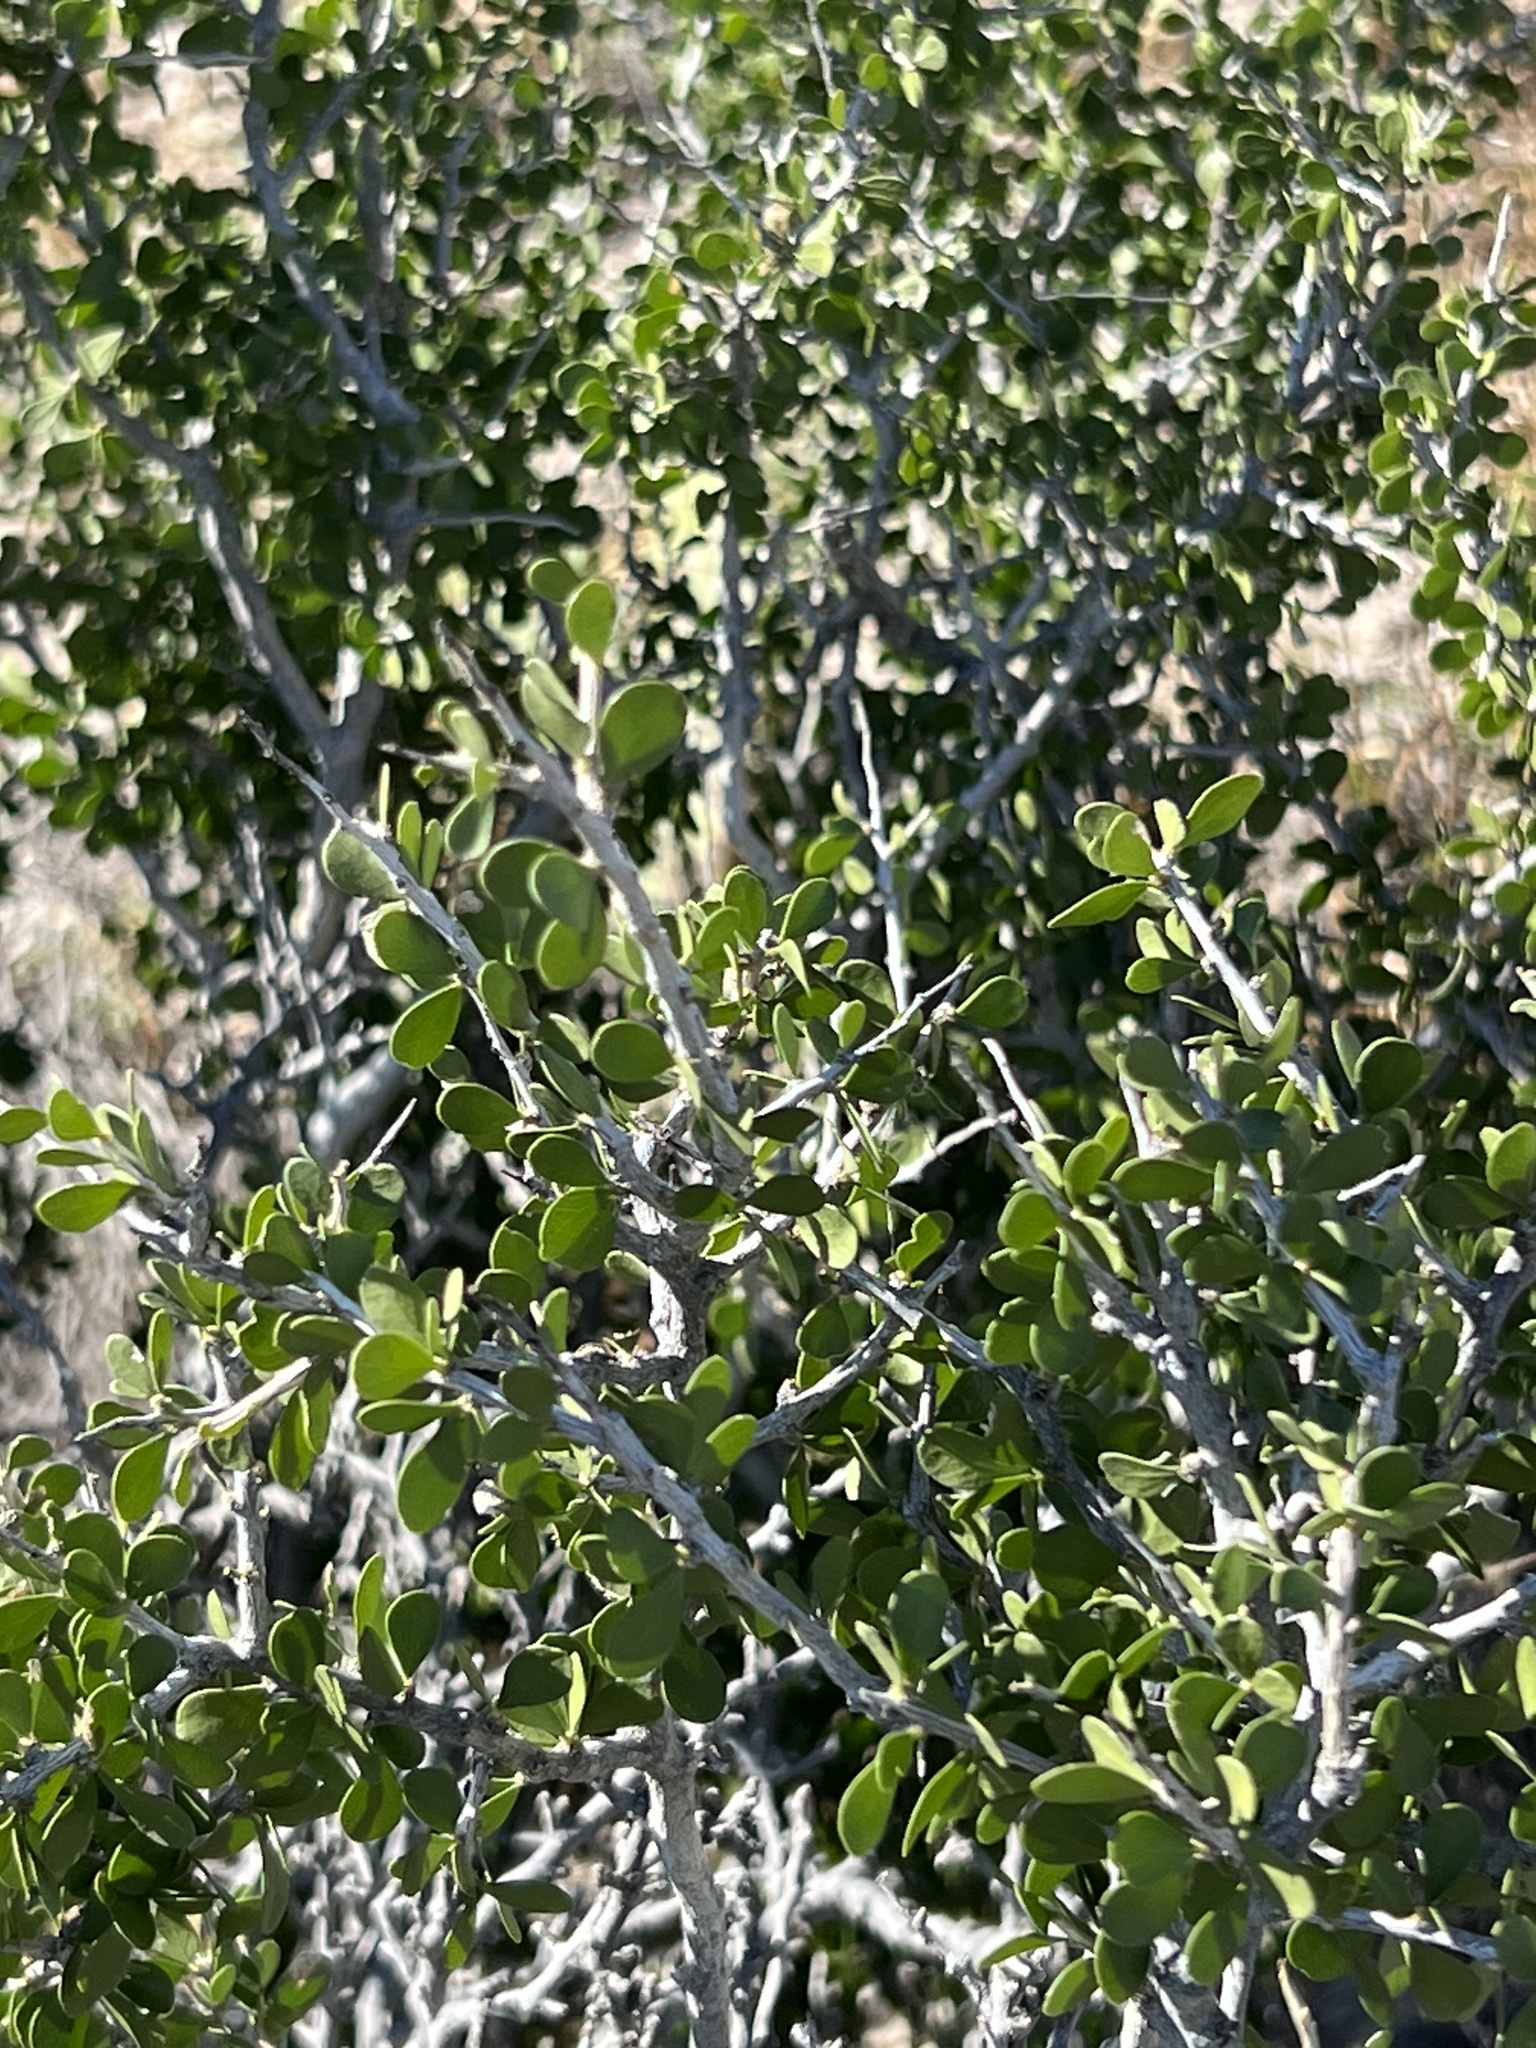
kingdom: Plantae
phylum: Tracheophyta
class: Magnoliopsida
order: Celastrales
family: Celastraceae
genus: Schaefferia
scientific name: Schaefferia cuneifolia
